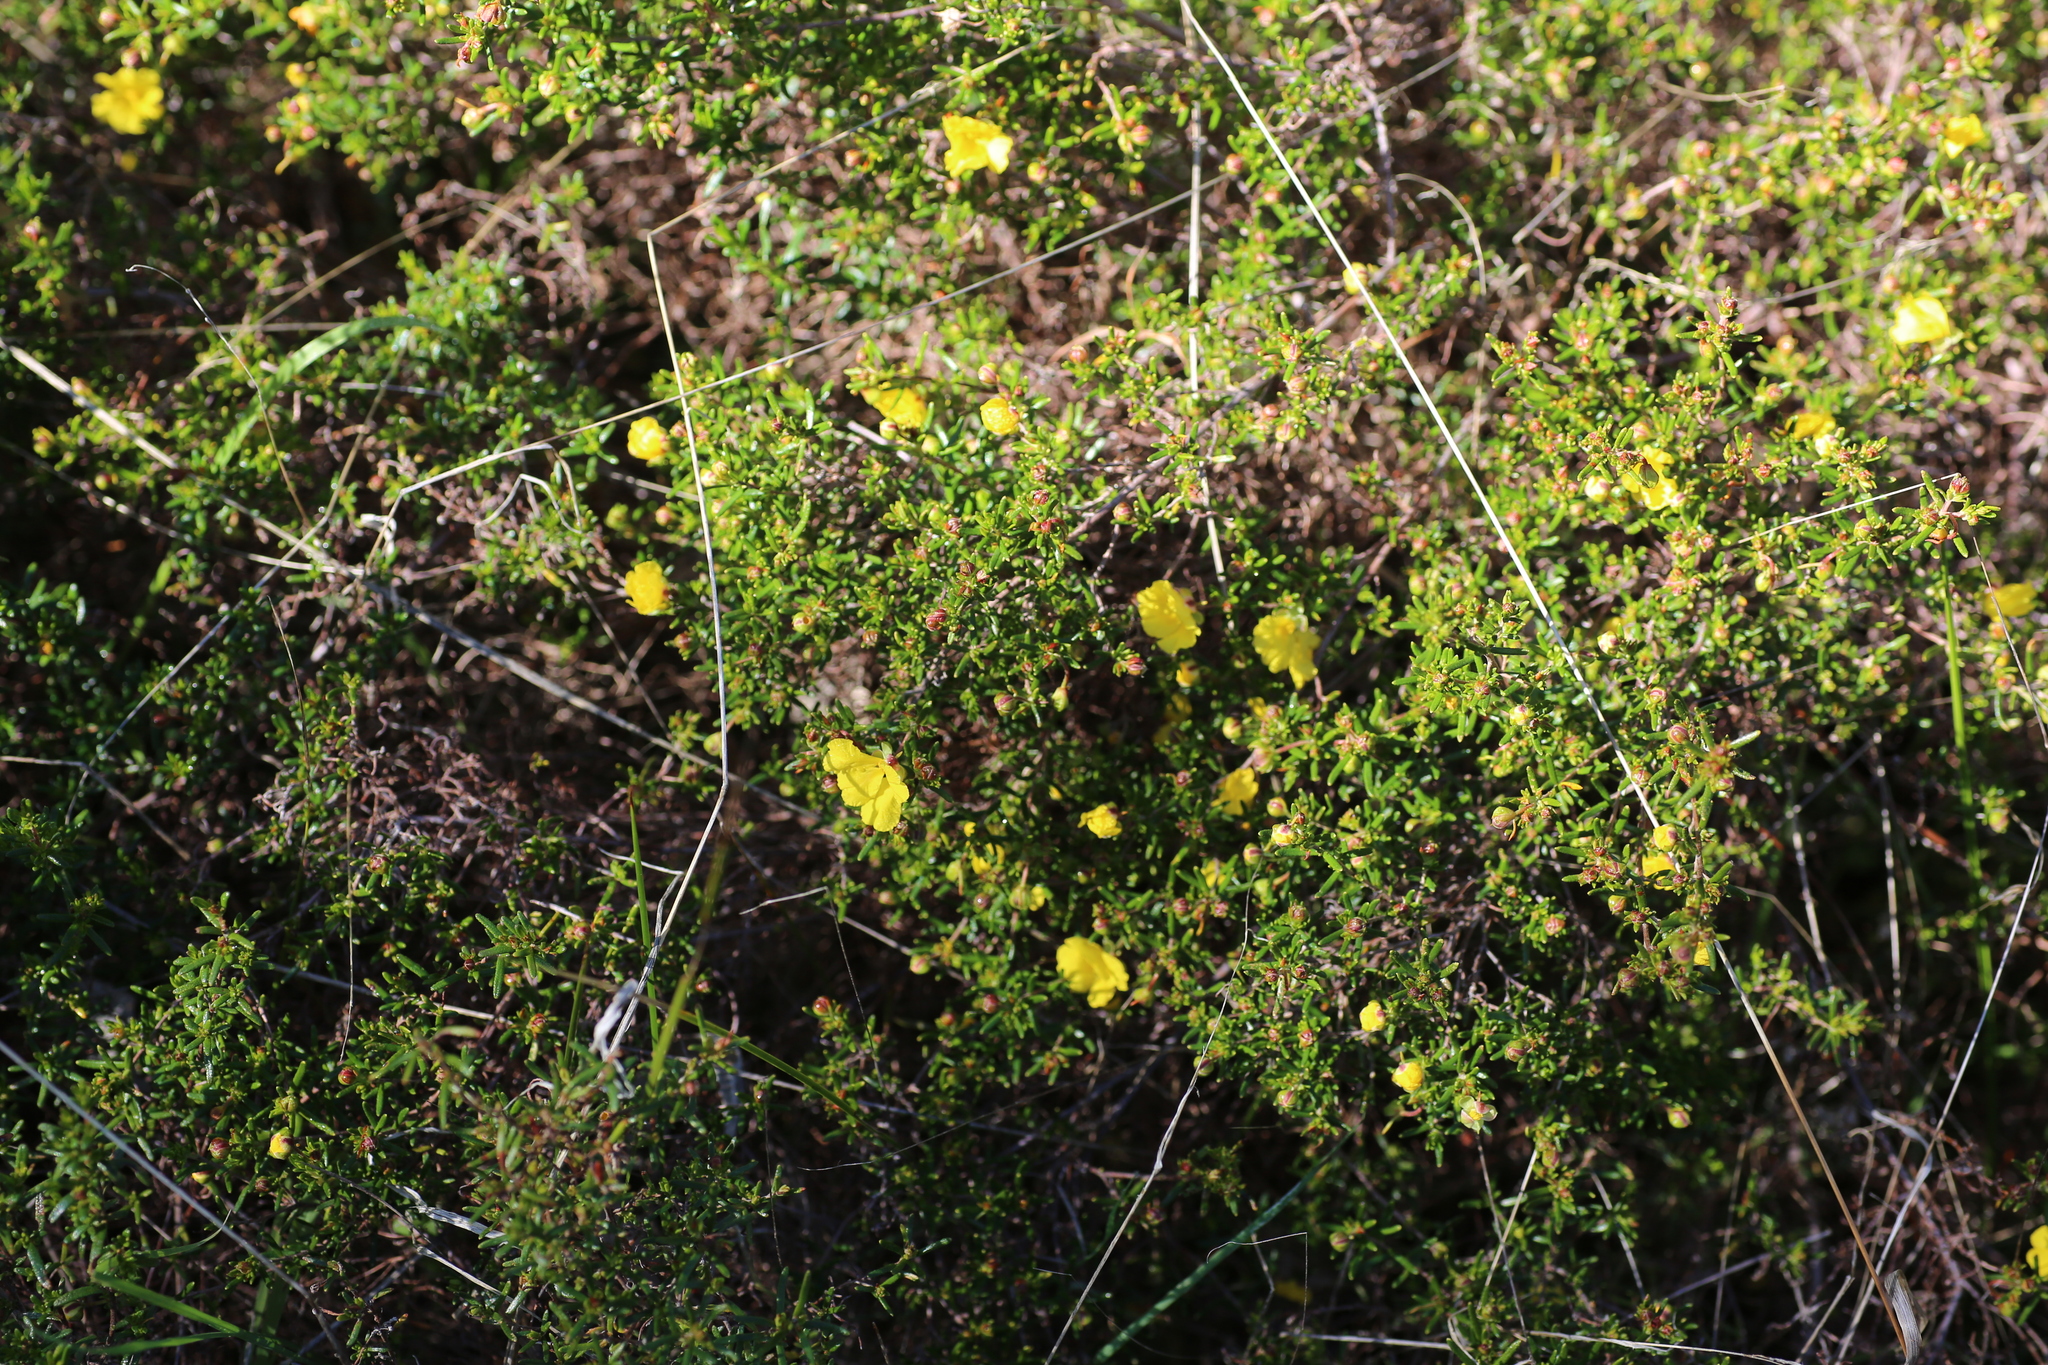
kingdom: Plantae
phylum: Tracheophyta
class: Magnoliopsida
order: Dilleniales
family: Dilleniaceae
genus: Hibbertia
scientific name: Hibbertia hypericoides
